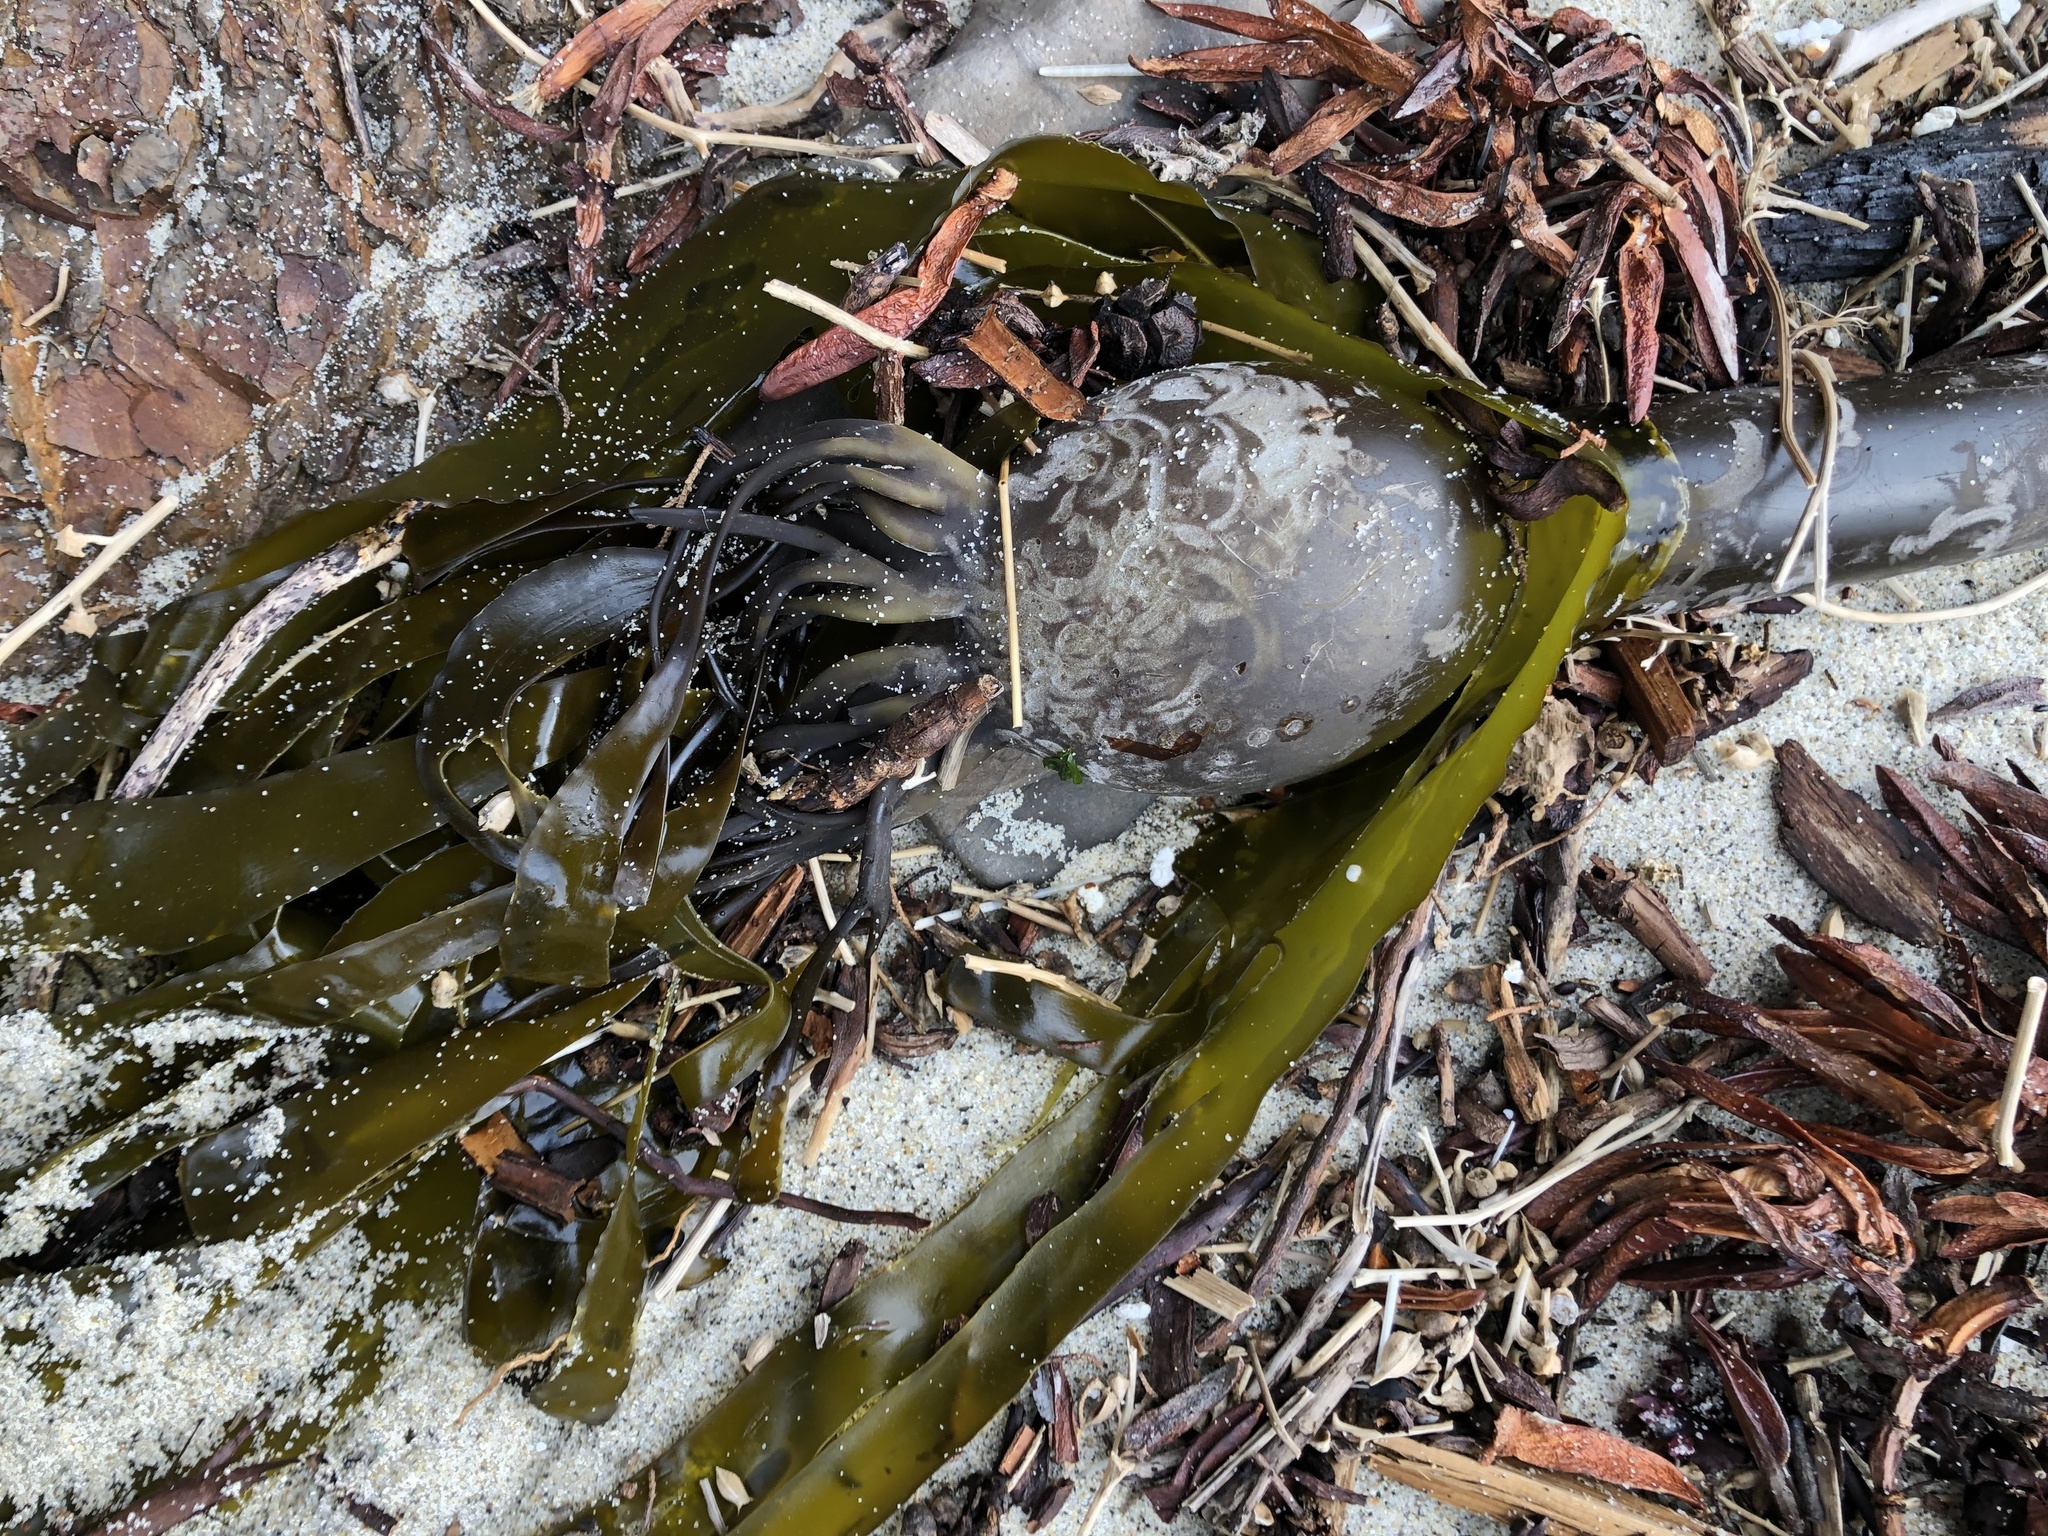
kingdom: Chromista
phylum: Ochrophyta
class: Phaeophyceae
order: Laminariales
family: Laminariaceae
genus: Nereocystis
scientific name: Nereocystis luetkeana
